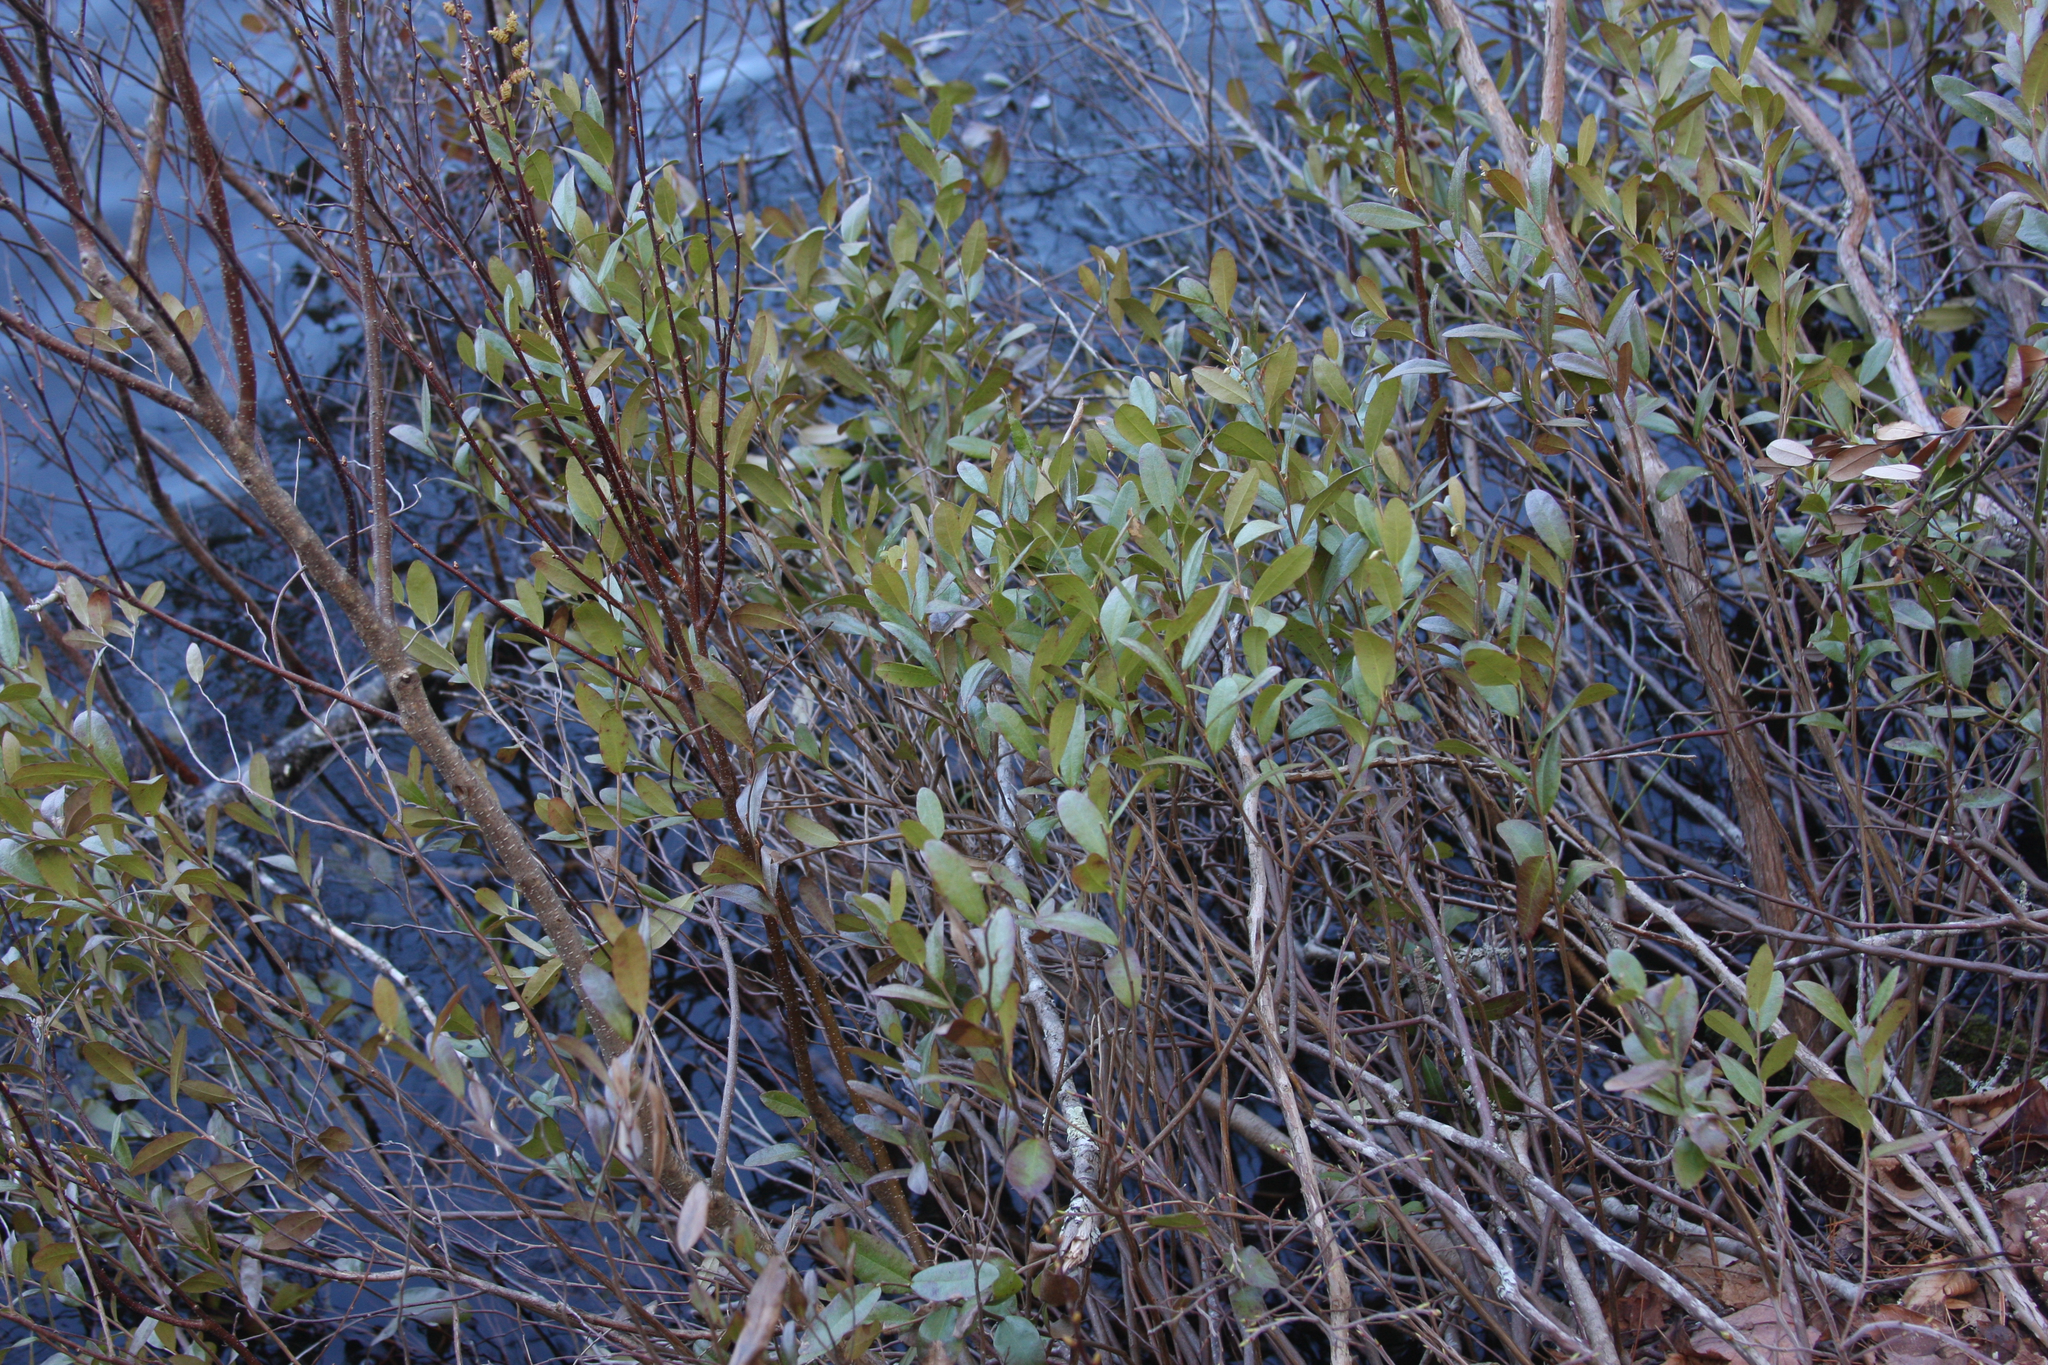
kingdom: Plantae
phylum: Tracheophyta
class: Magnoliopsida
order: Ericales
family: Ericaceae
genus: Chamaedaphne
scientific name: Chamaedaphne calyculata
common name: Leatherleaf
